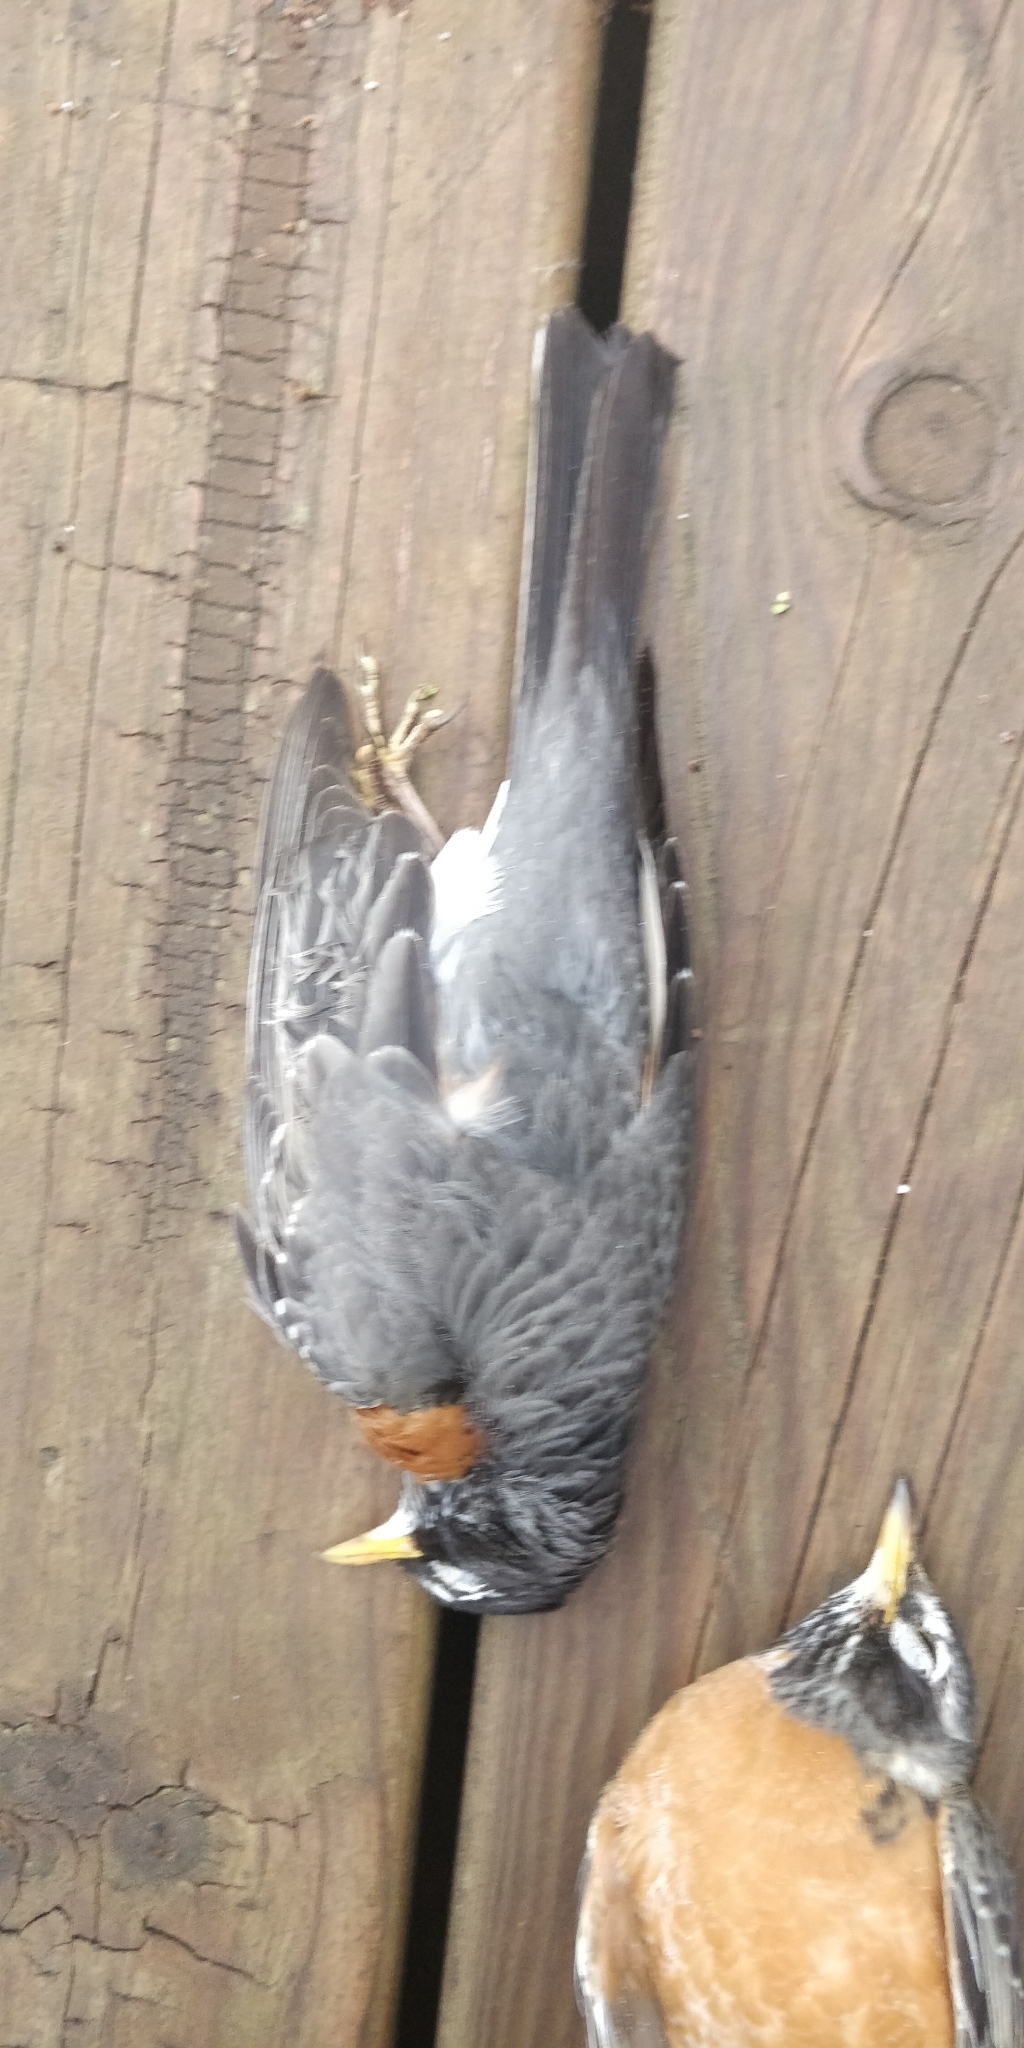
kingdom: Animalia
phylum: Chordata
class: Aves
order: Passeriformes
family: Turdidae
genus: Turdus
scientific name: Turdus migratorius
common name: American robin
